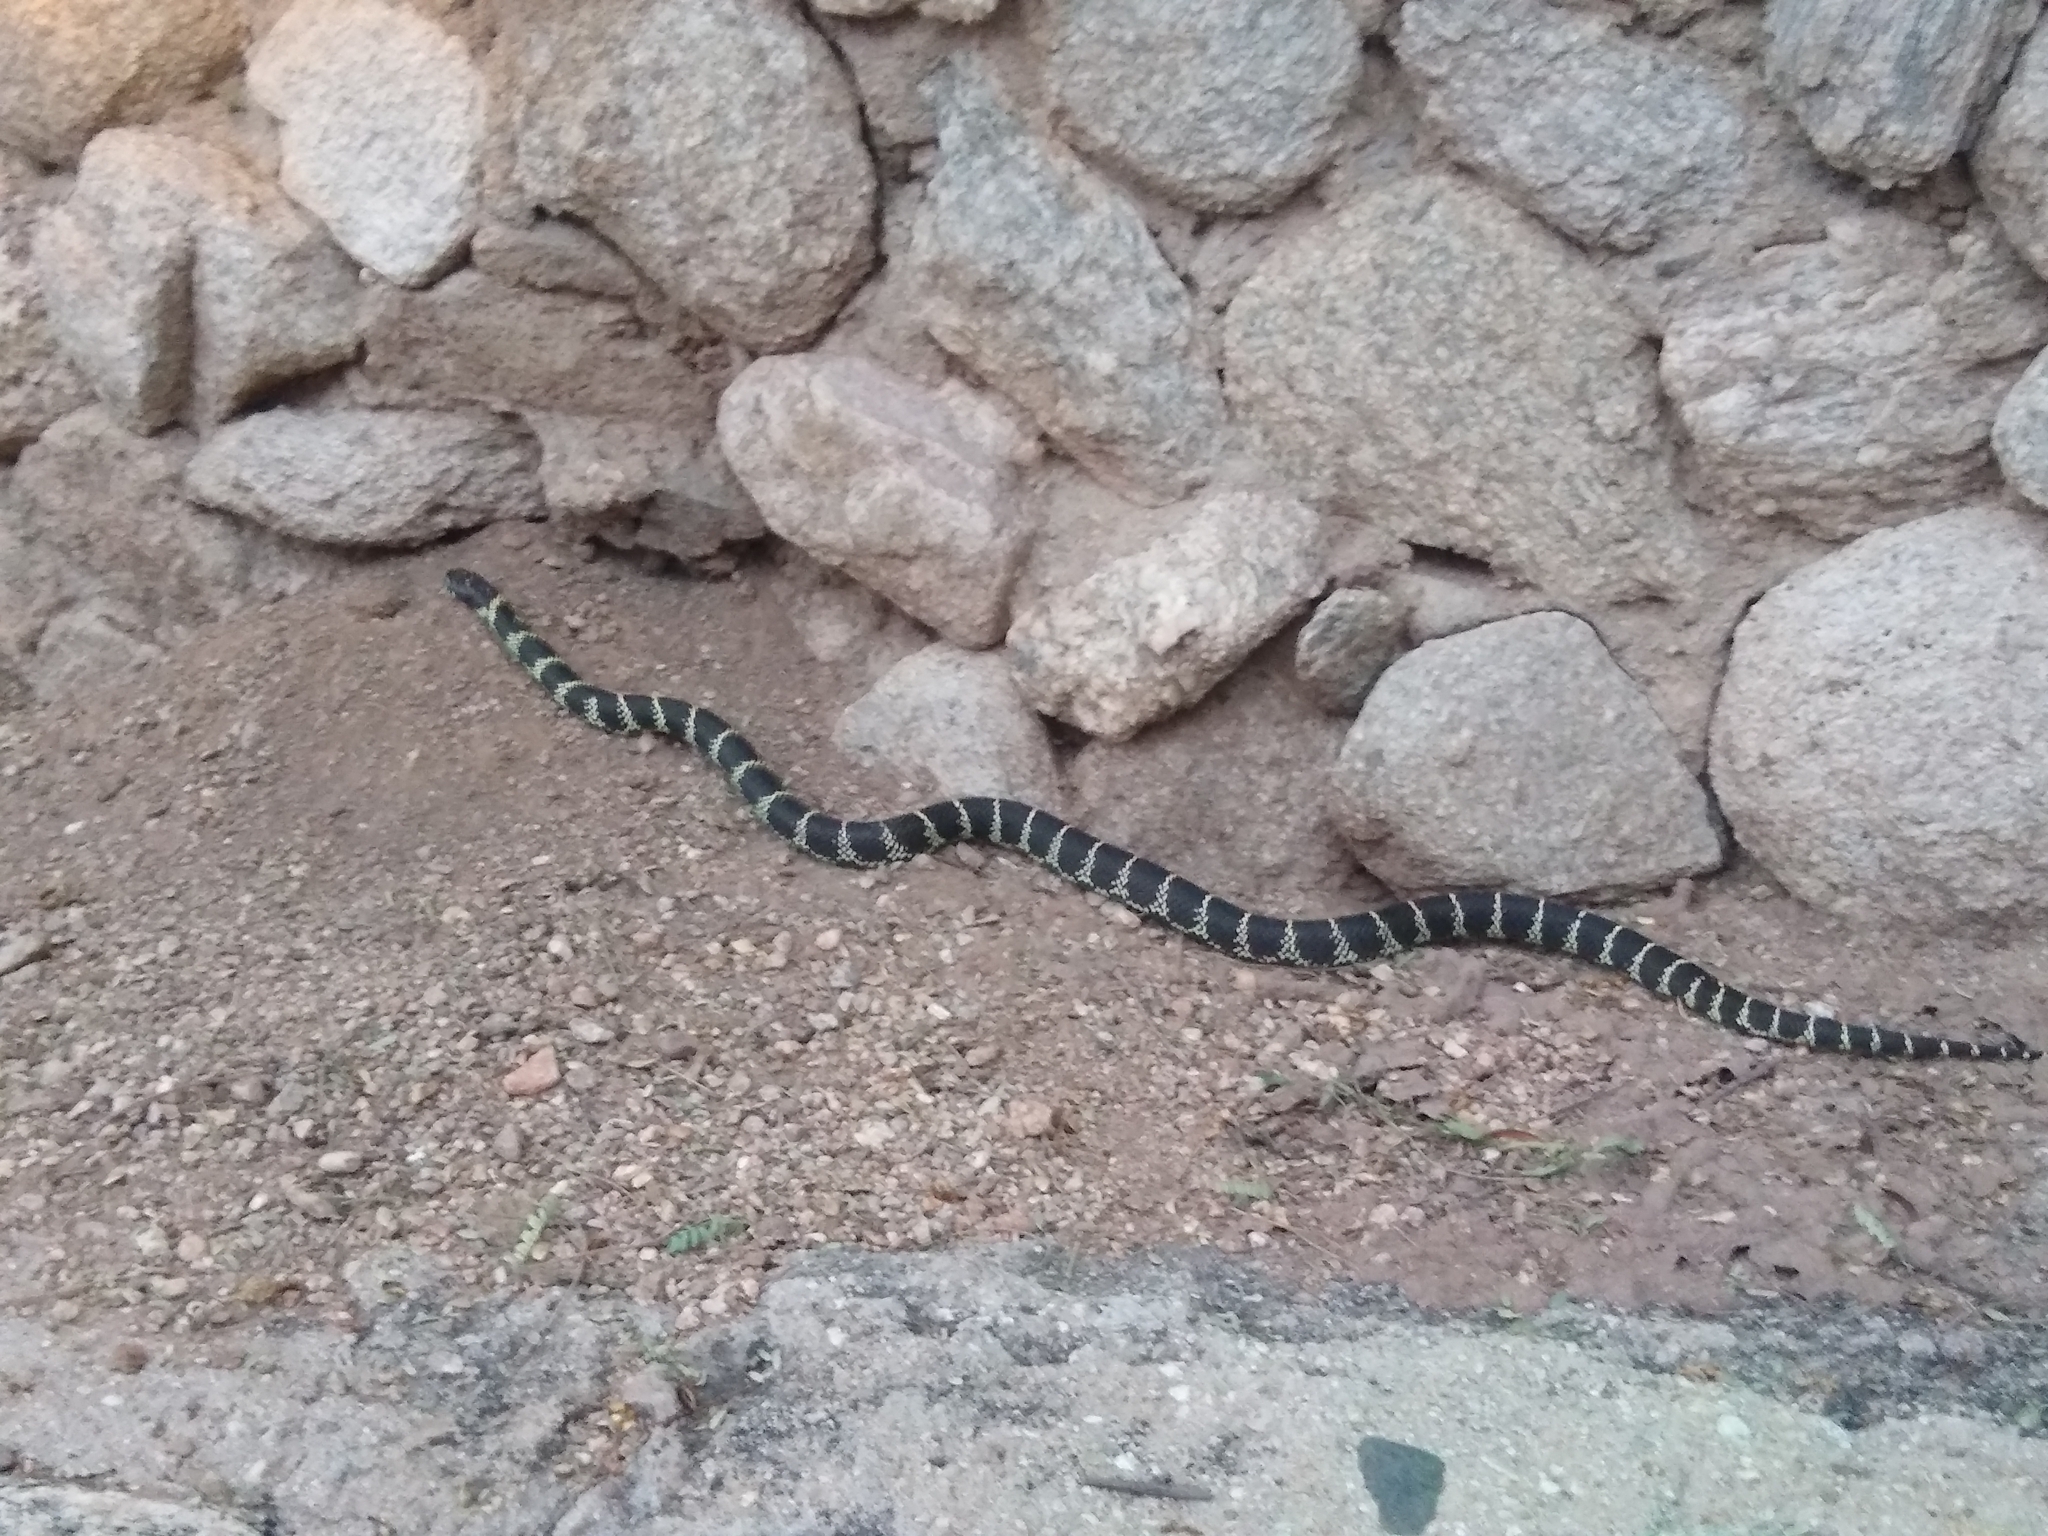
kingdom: Animalia
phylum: Chordata
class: Squamata
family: Colubridae
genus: Lampropeltis
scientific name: Lampropeltis californiae
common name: California kingsnake
